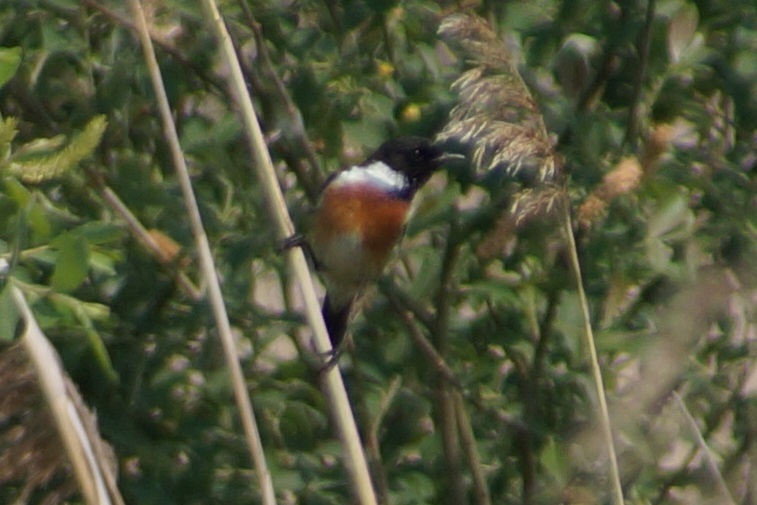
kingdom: Animalia
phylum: Chordata
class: Aves
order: Passeriformes
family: Muscicapidae
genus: Saxicola
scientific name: Saxicola rubicola
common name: European stonechat
